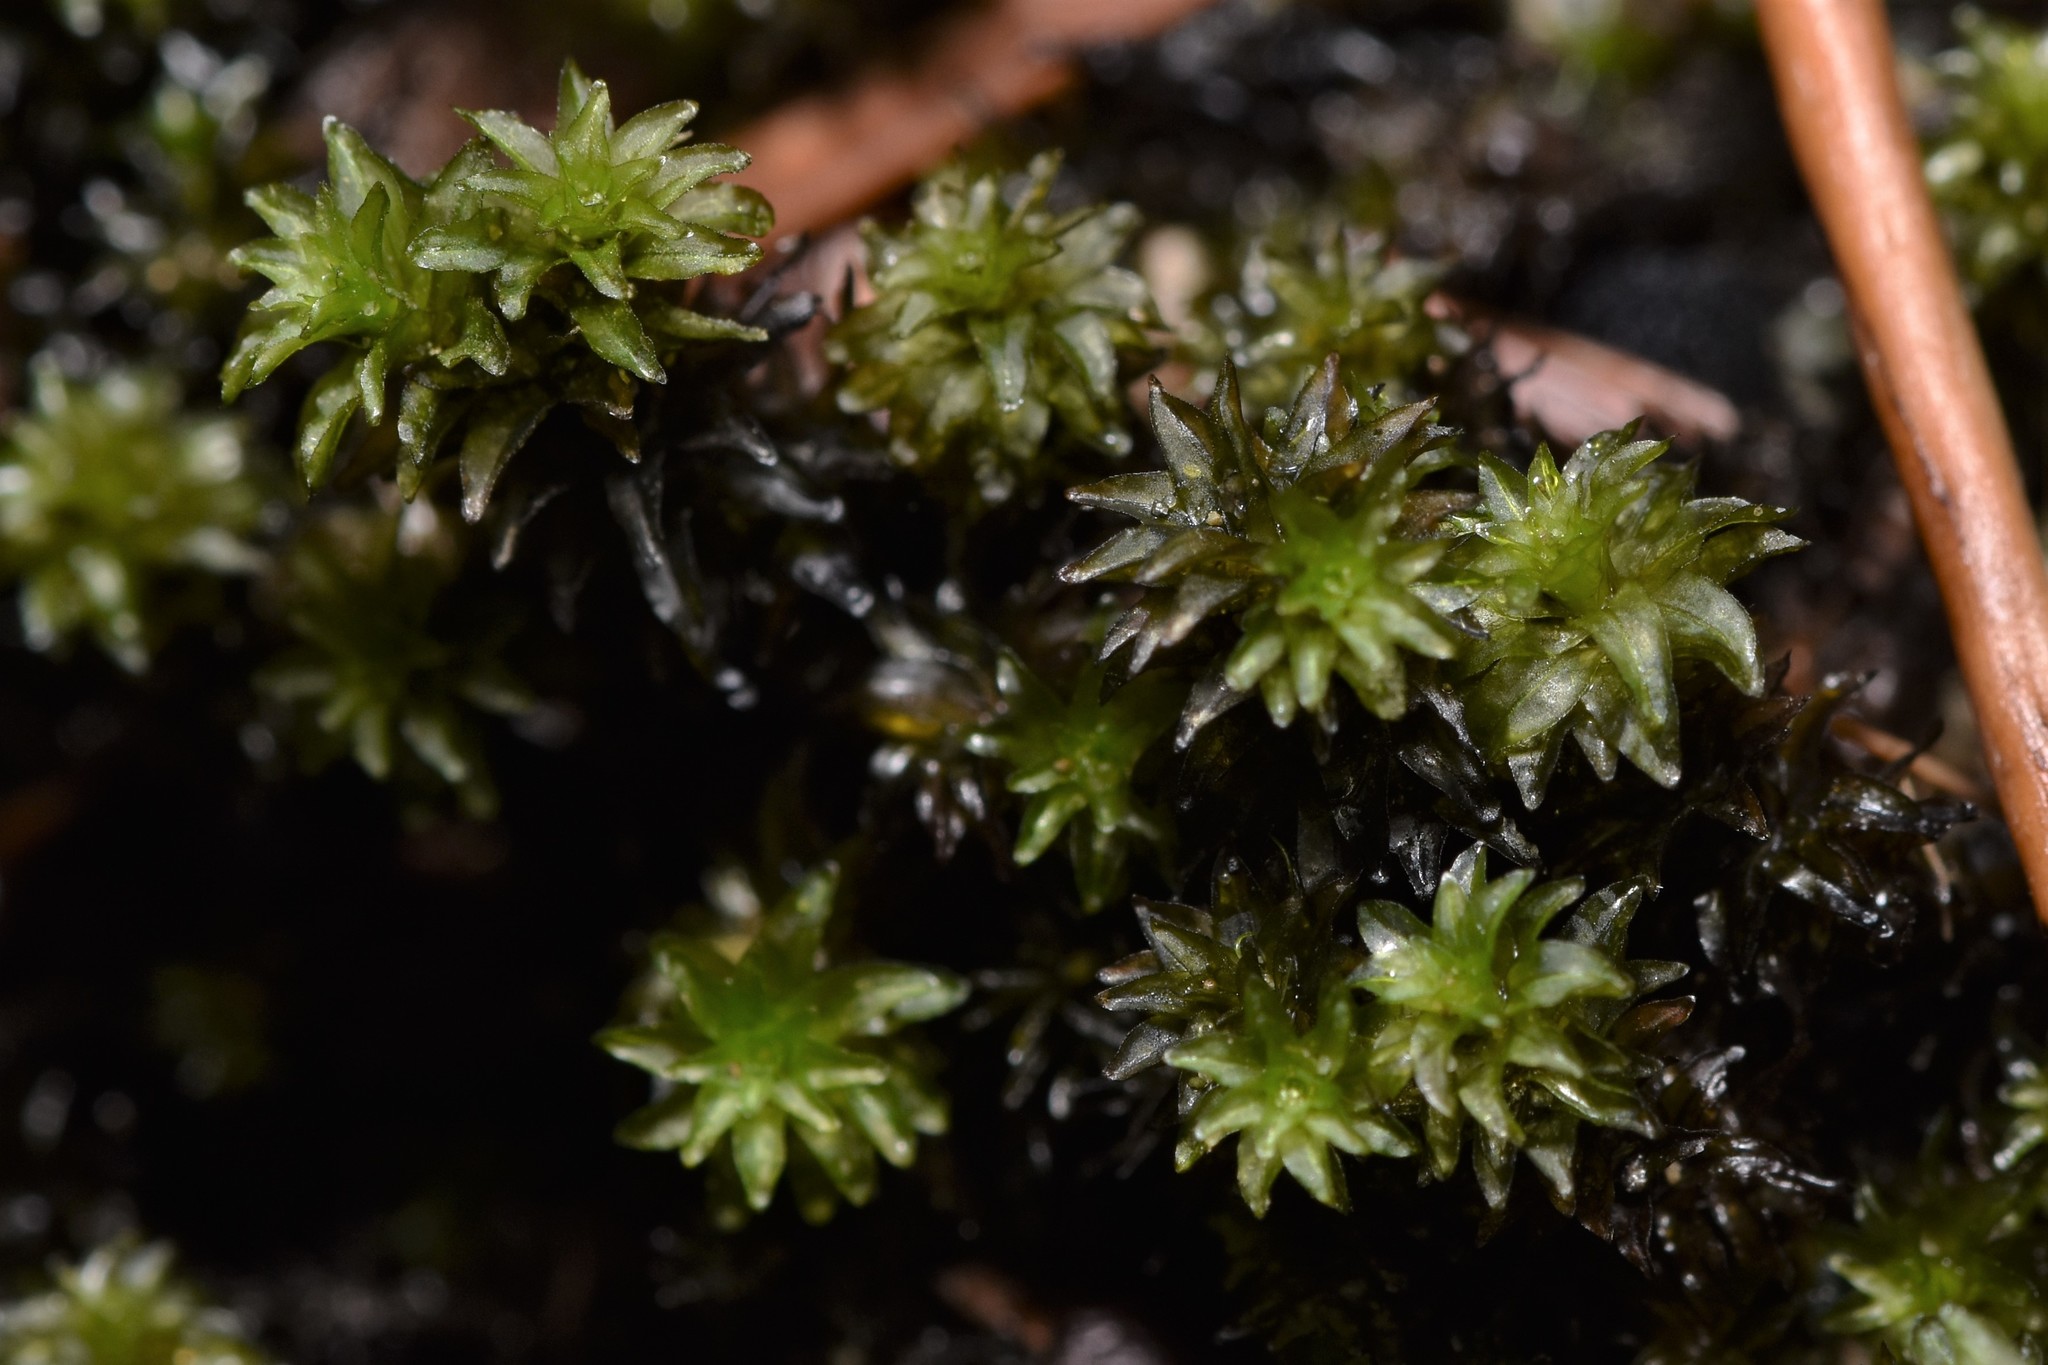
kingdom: Plantae
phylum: Bryophyta
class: Bryopsida
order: Scouleriales
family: Scouleriaceae
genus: Scouleria
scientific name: Scouleria aquatica
